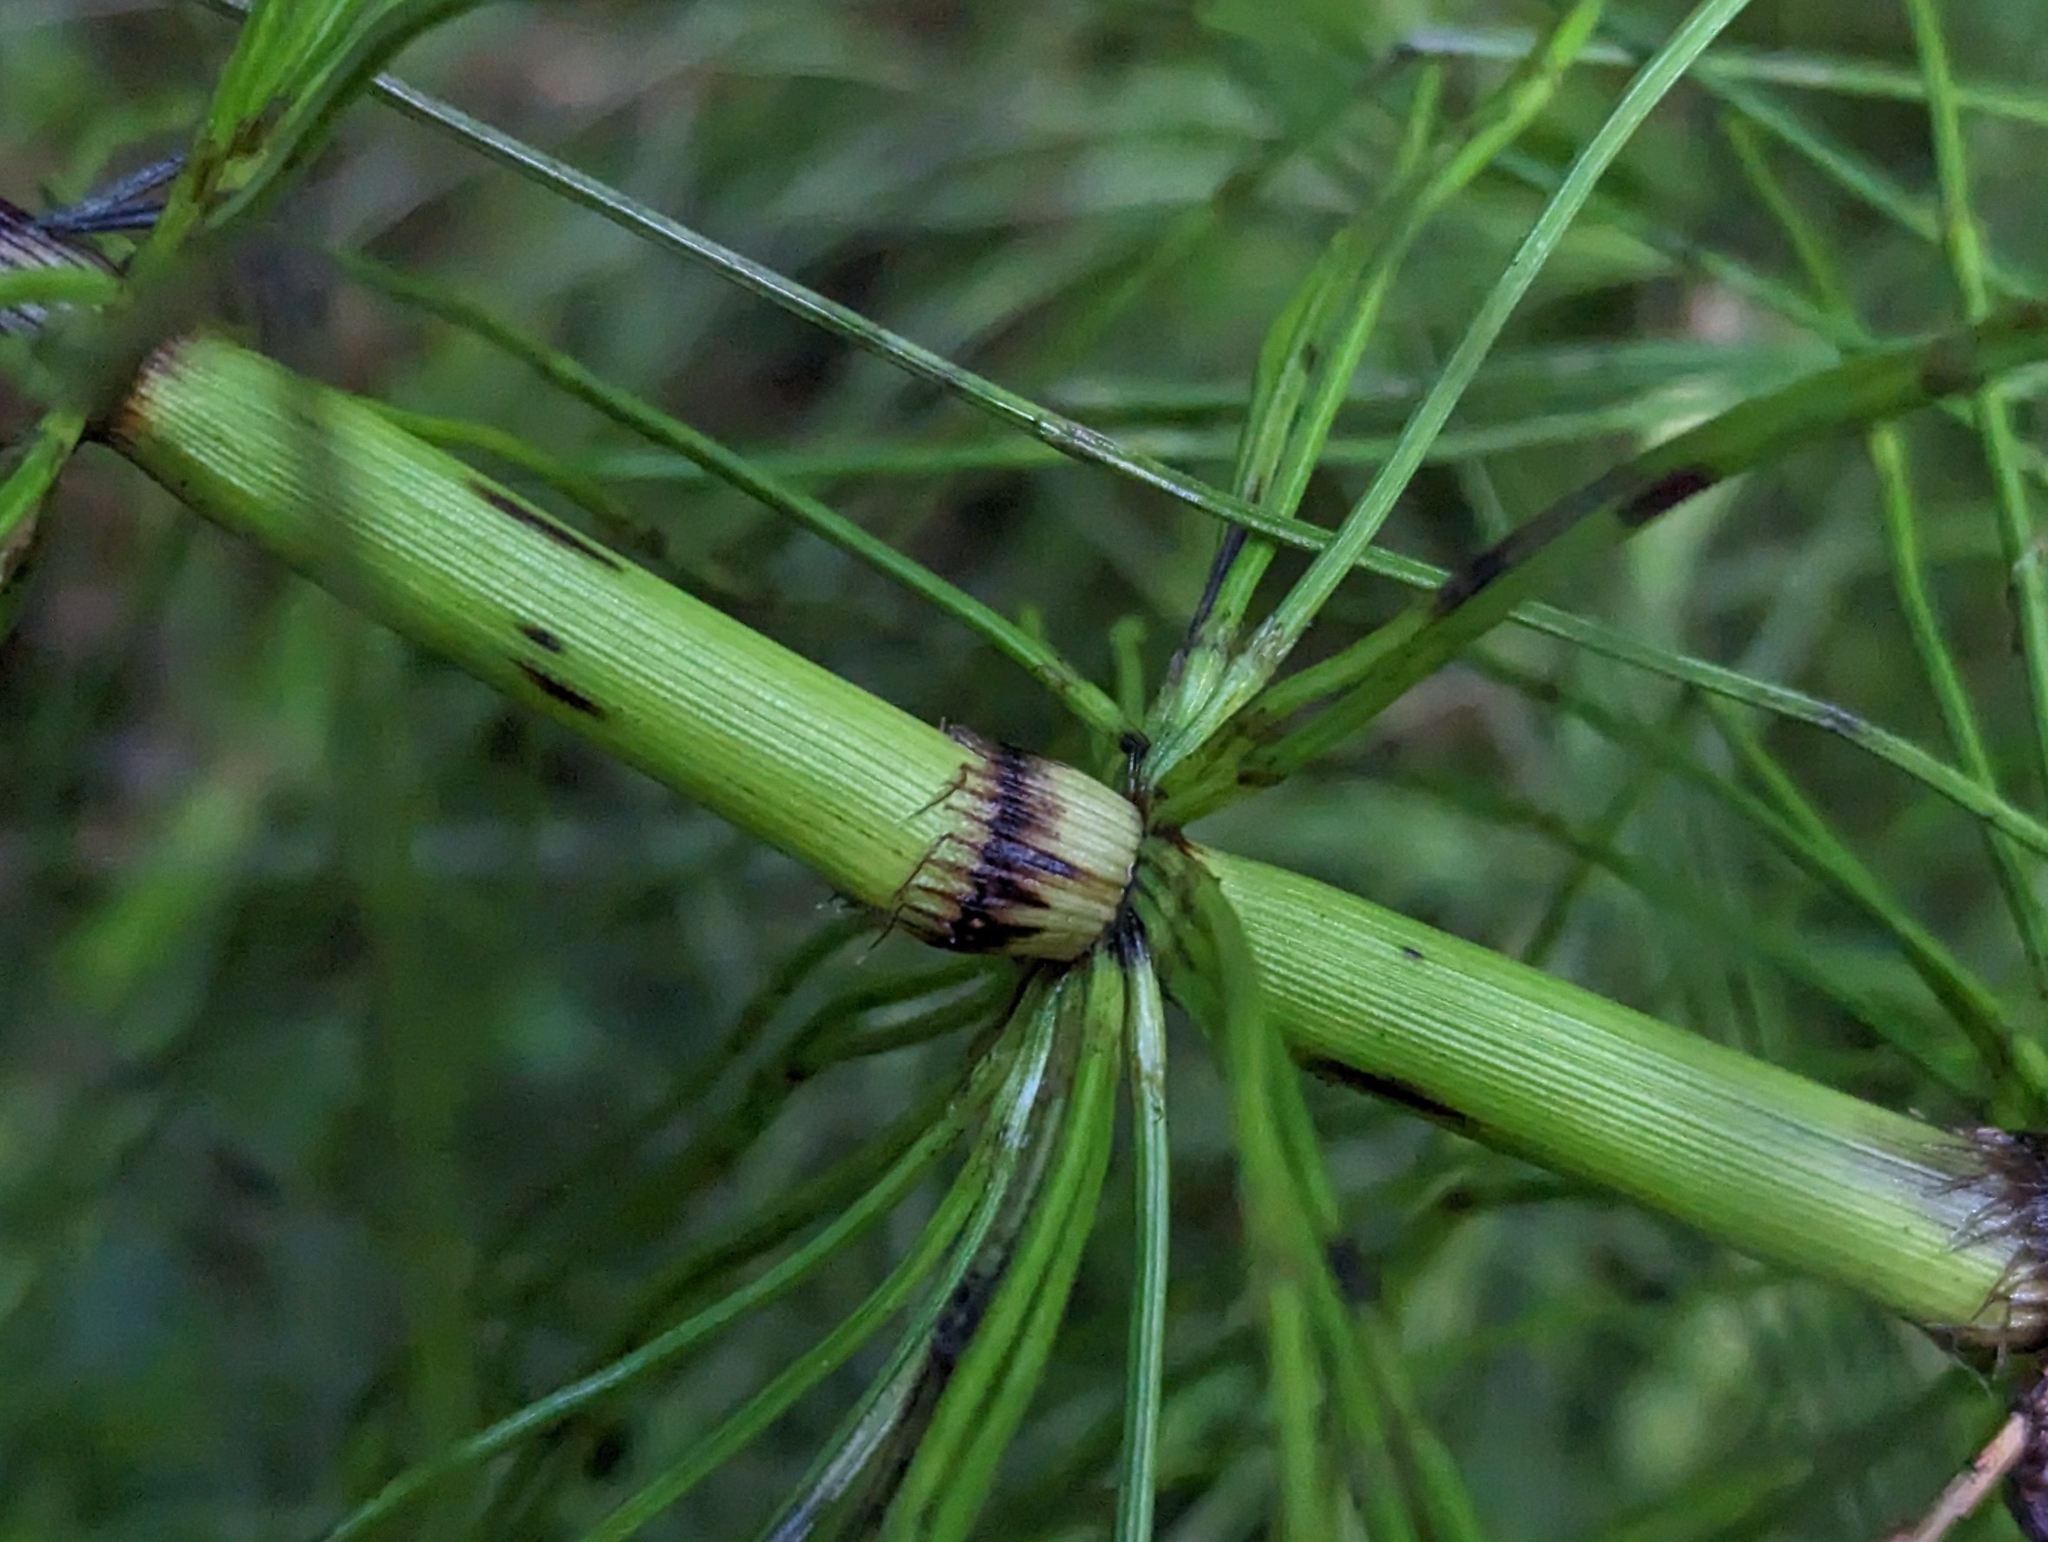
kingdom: Plantae
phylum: Tracheophyta
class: Polypodiopsida
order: Equisetales
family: Equisetaceae
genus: Equisetum
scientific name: Equisetum braunii
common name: Braun's horsetail
